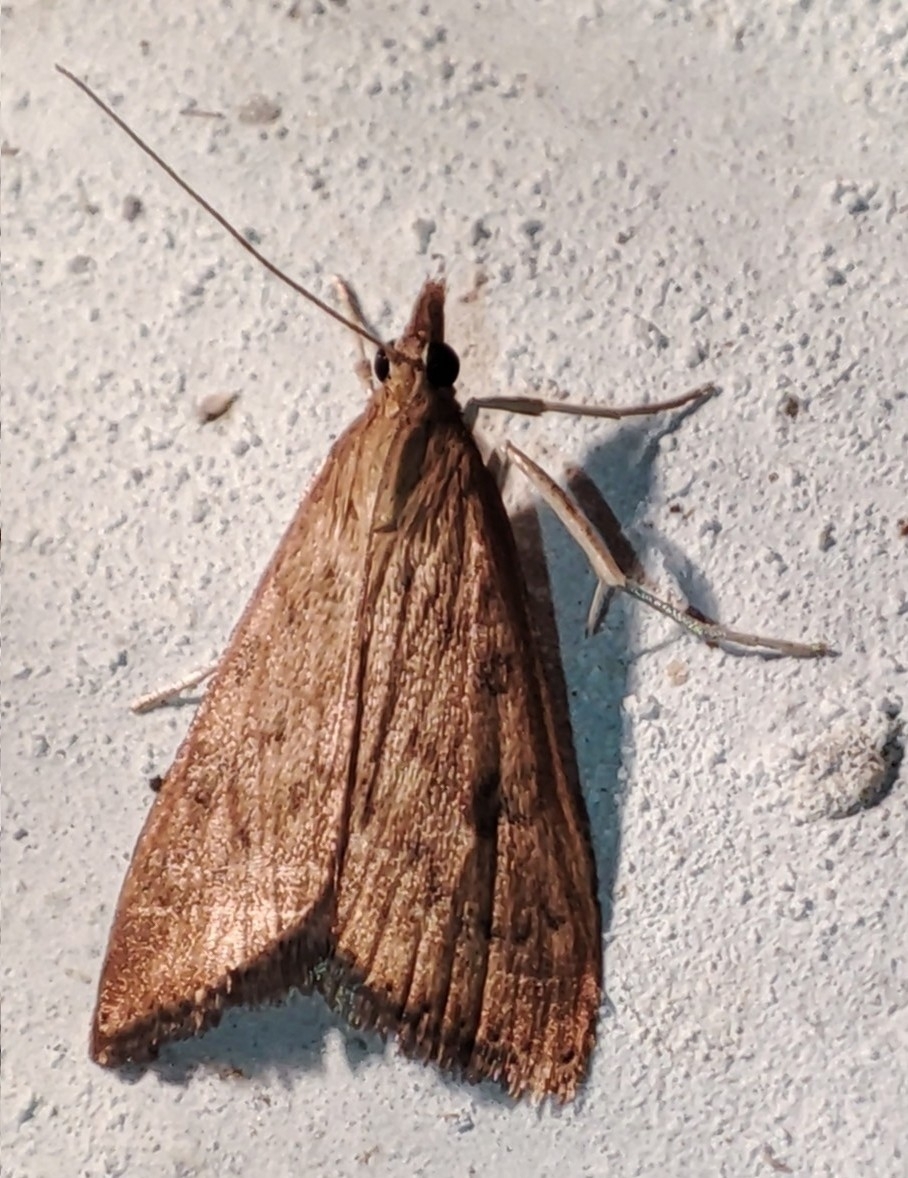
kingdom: Animalia
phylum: Arthropoda
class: Insecta
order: Lepidoptera
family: Crambidae
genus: Udea
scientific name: Udea ferrugalis
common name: Rusty dot
